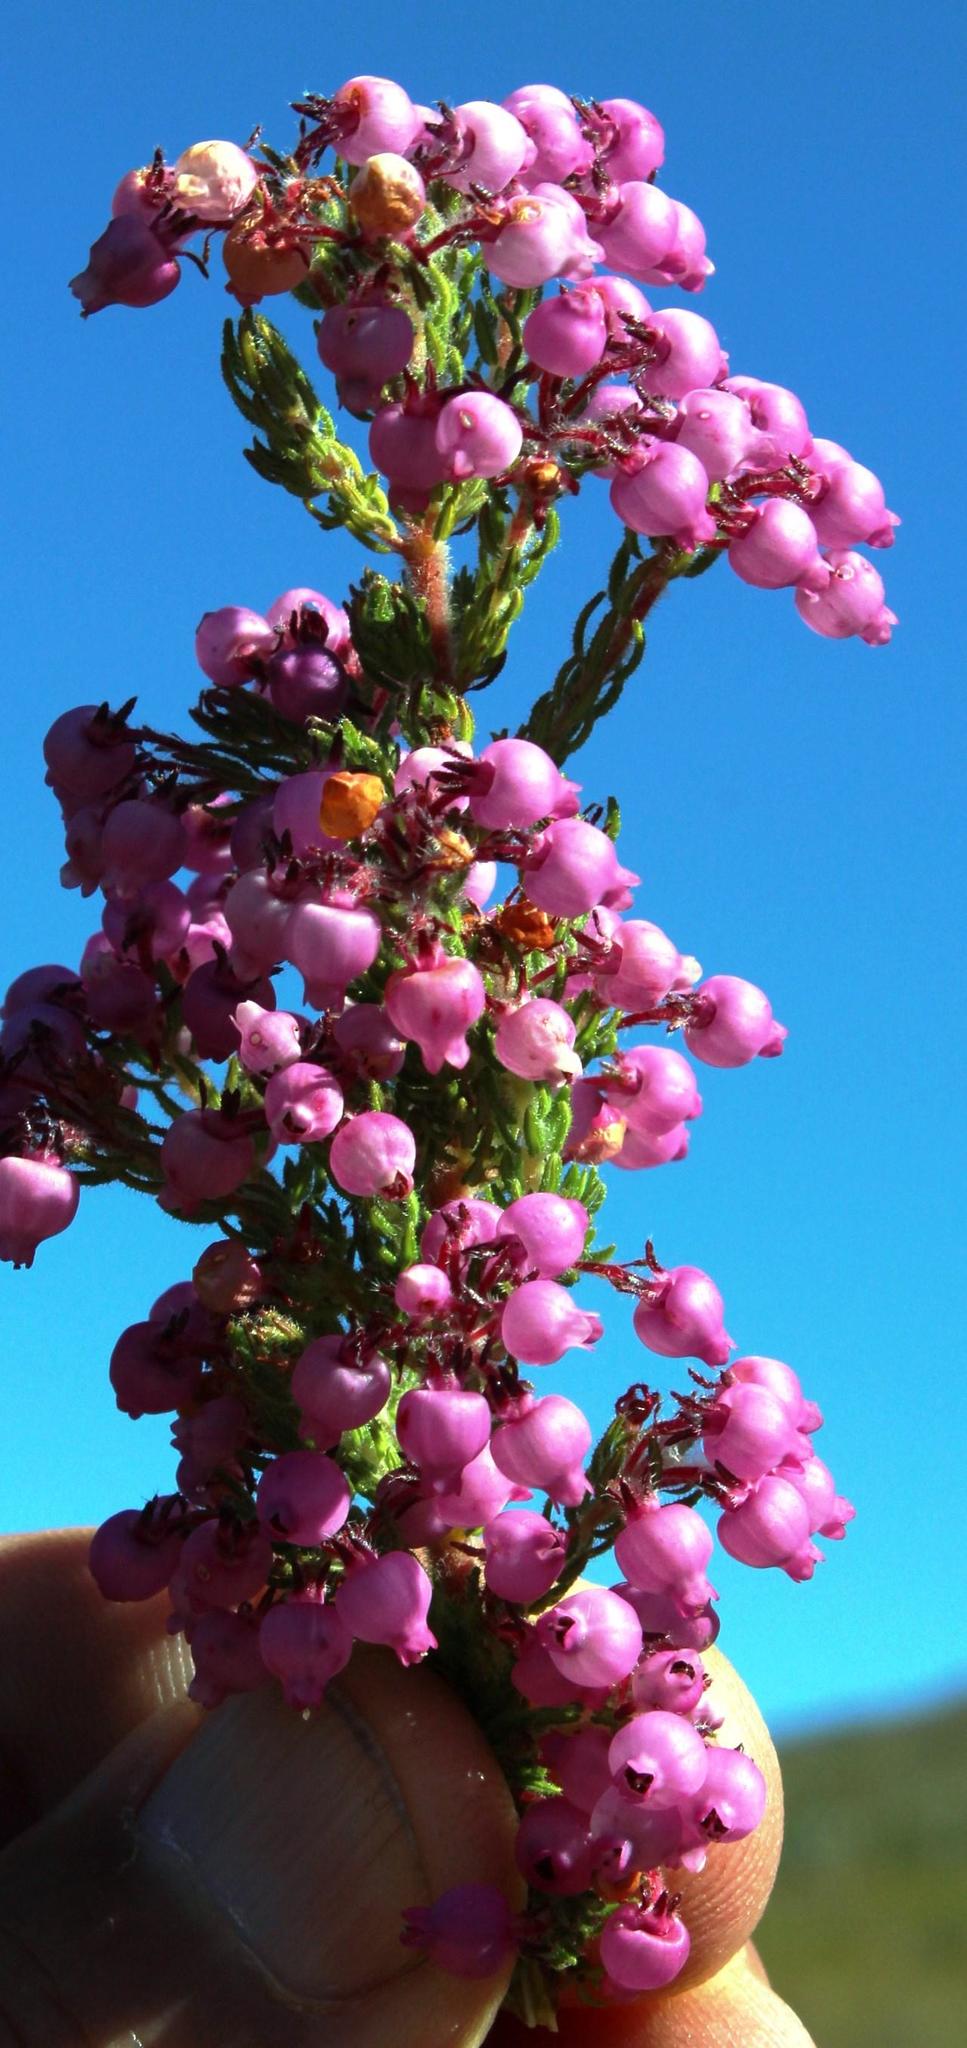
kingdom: Plantae
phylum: Tracheophyta
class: Magnoliopsida
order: Ericales
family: Ericaceae
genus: Erica
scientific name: Erica bergiana
